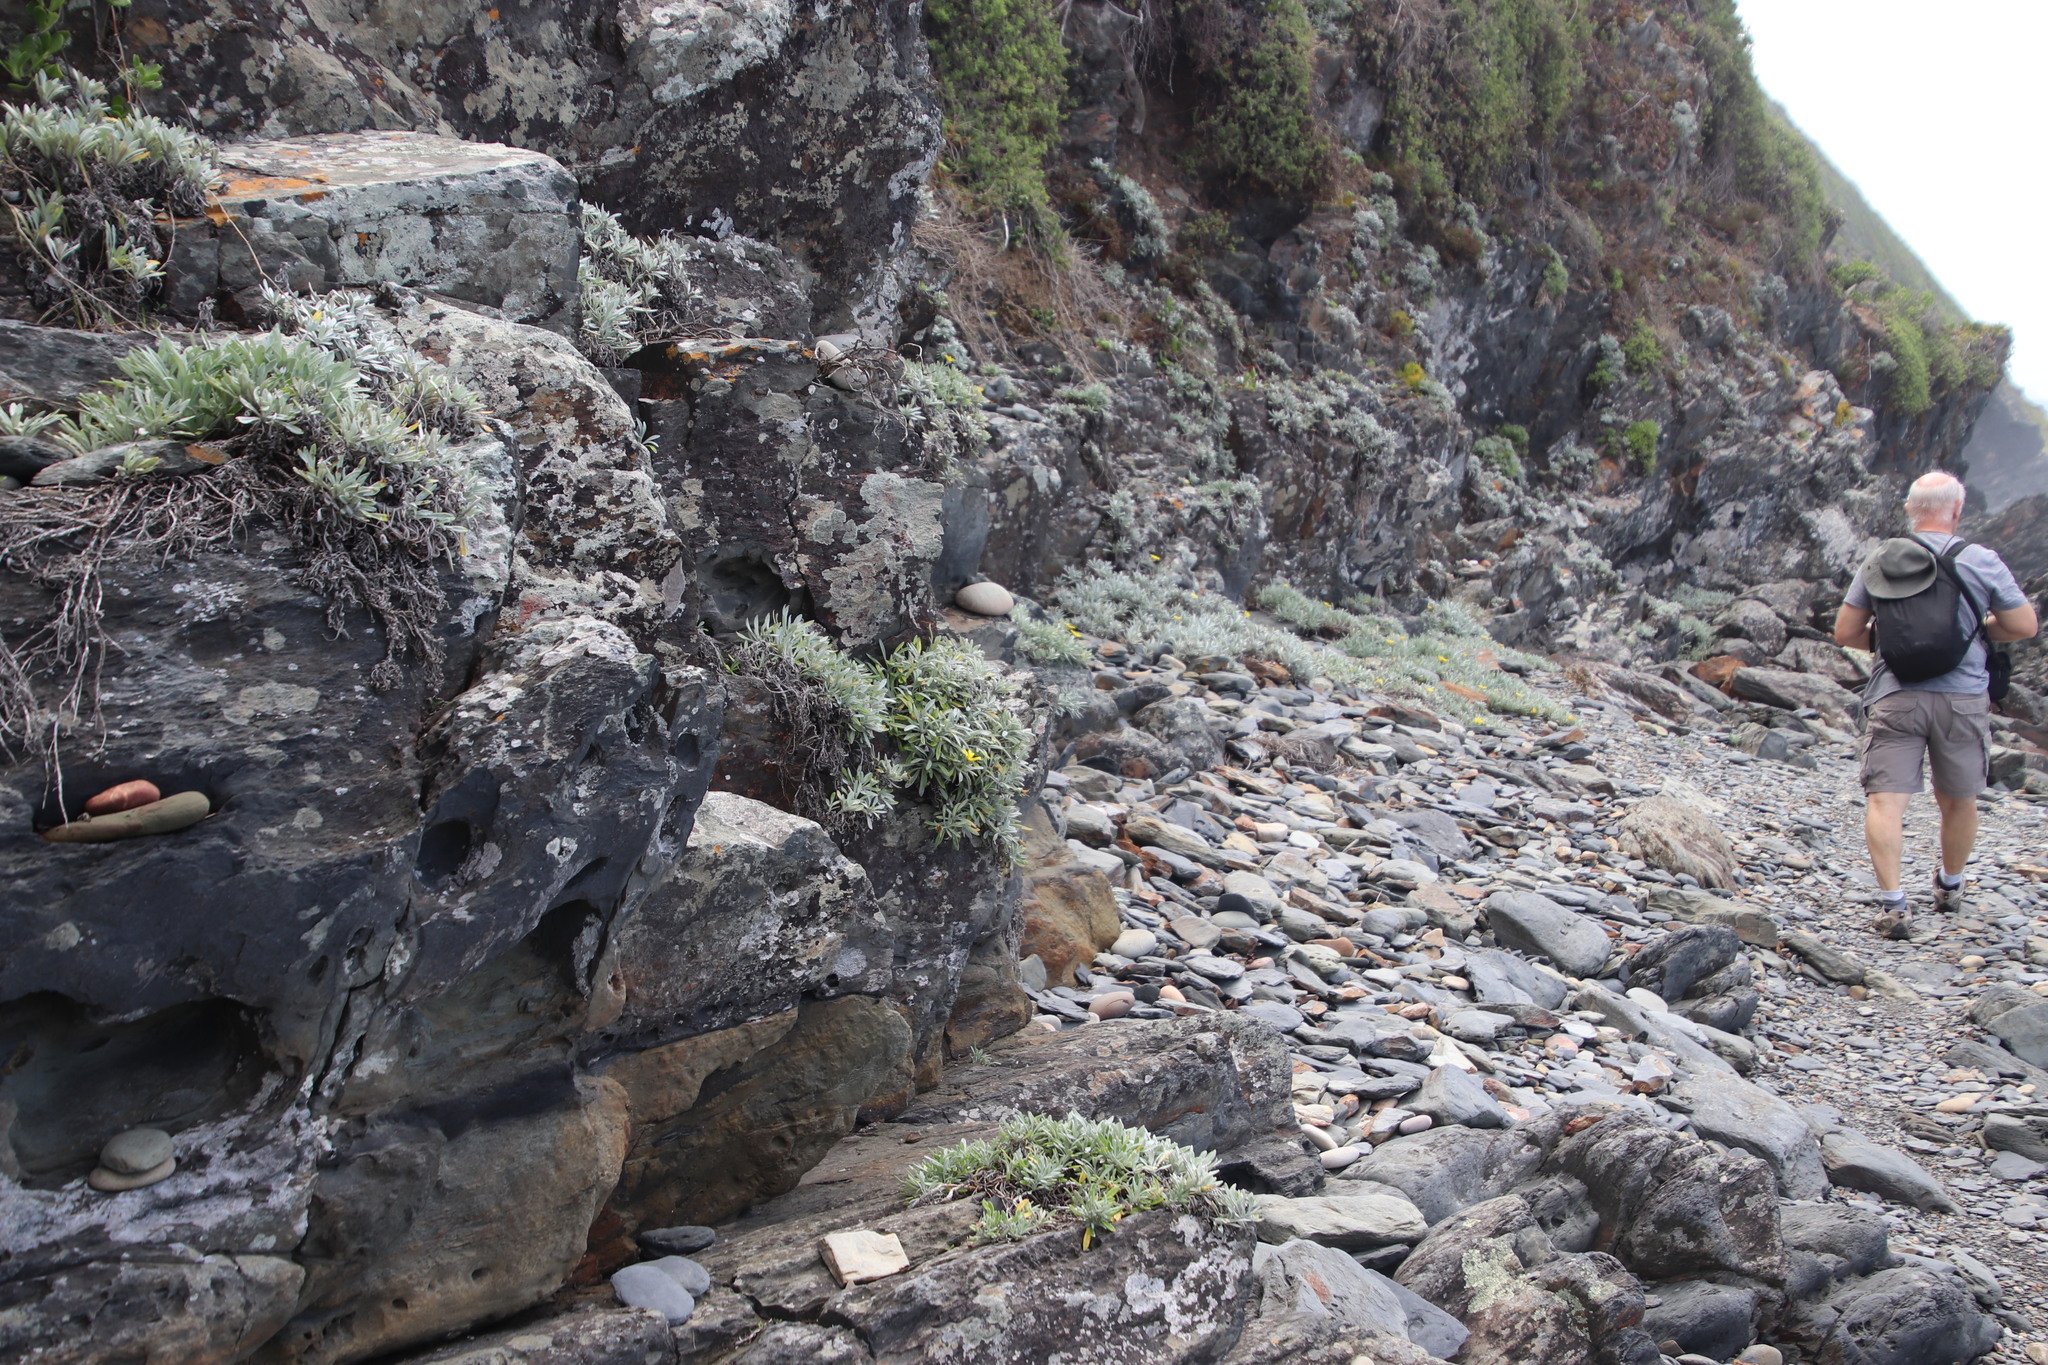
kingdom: Plantae
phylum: Tracheophyta
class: Magnoliopsida
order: Asterales
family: Asteraceae
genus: Gazania
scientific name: Gazania rigens
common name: Treasureflower
